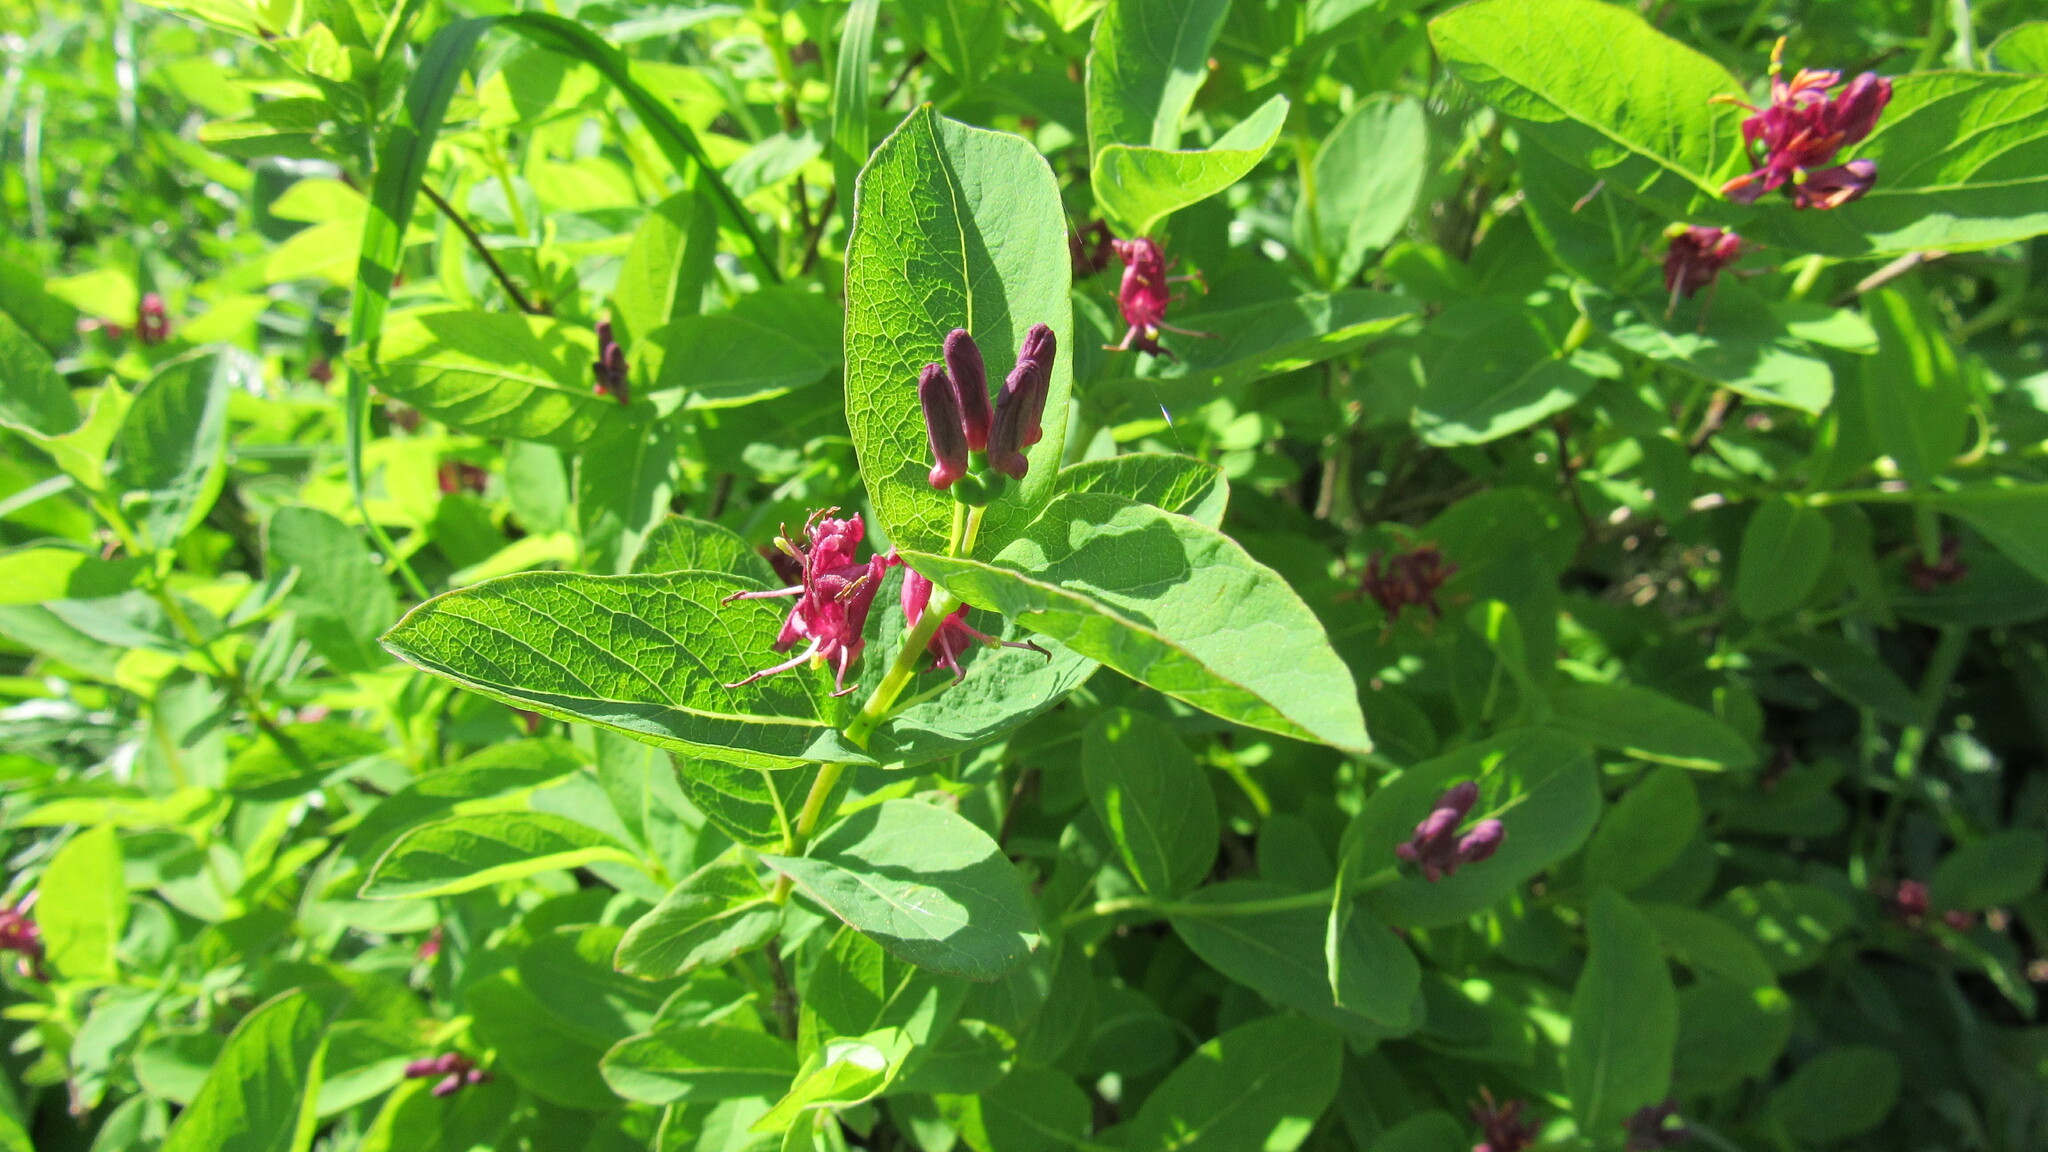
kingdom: Plantae
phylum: Tracheophyta
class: Magnoliopsida
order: Dipsacales
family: Caprifoliaceae
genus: Lonicera
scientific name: Lonicera chamissoi
